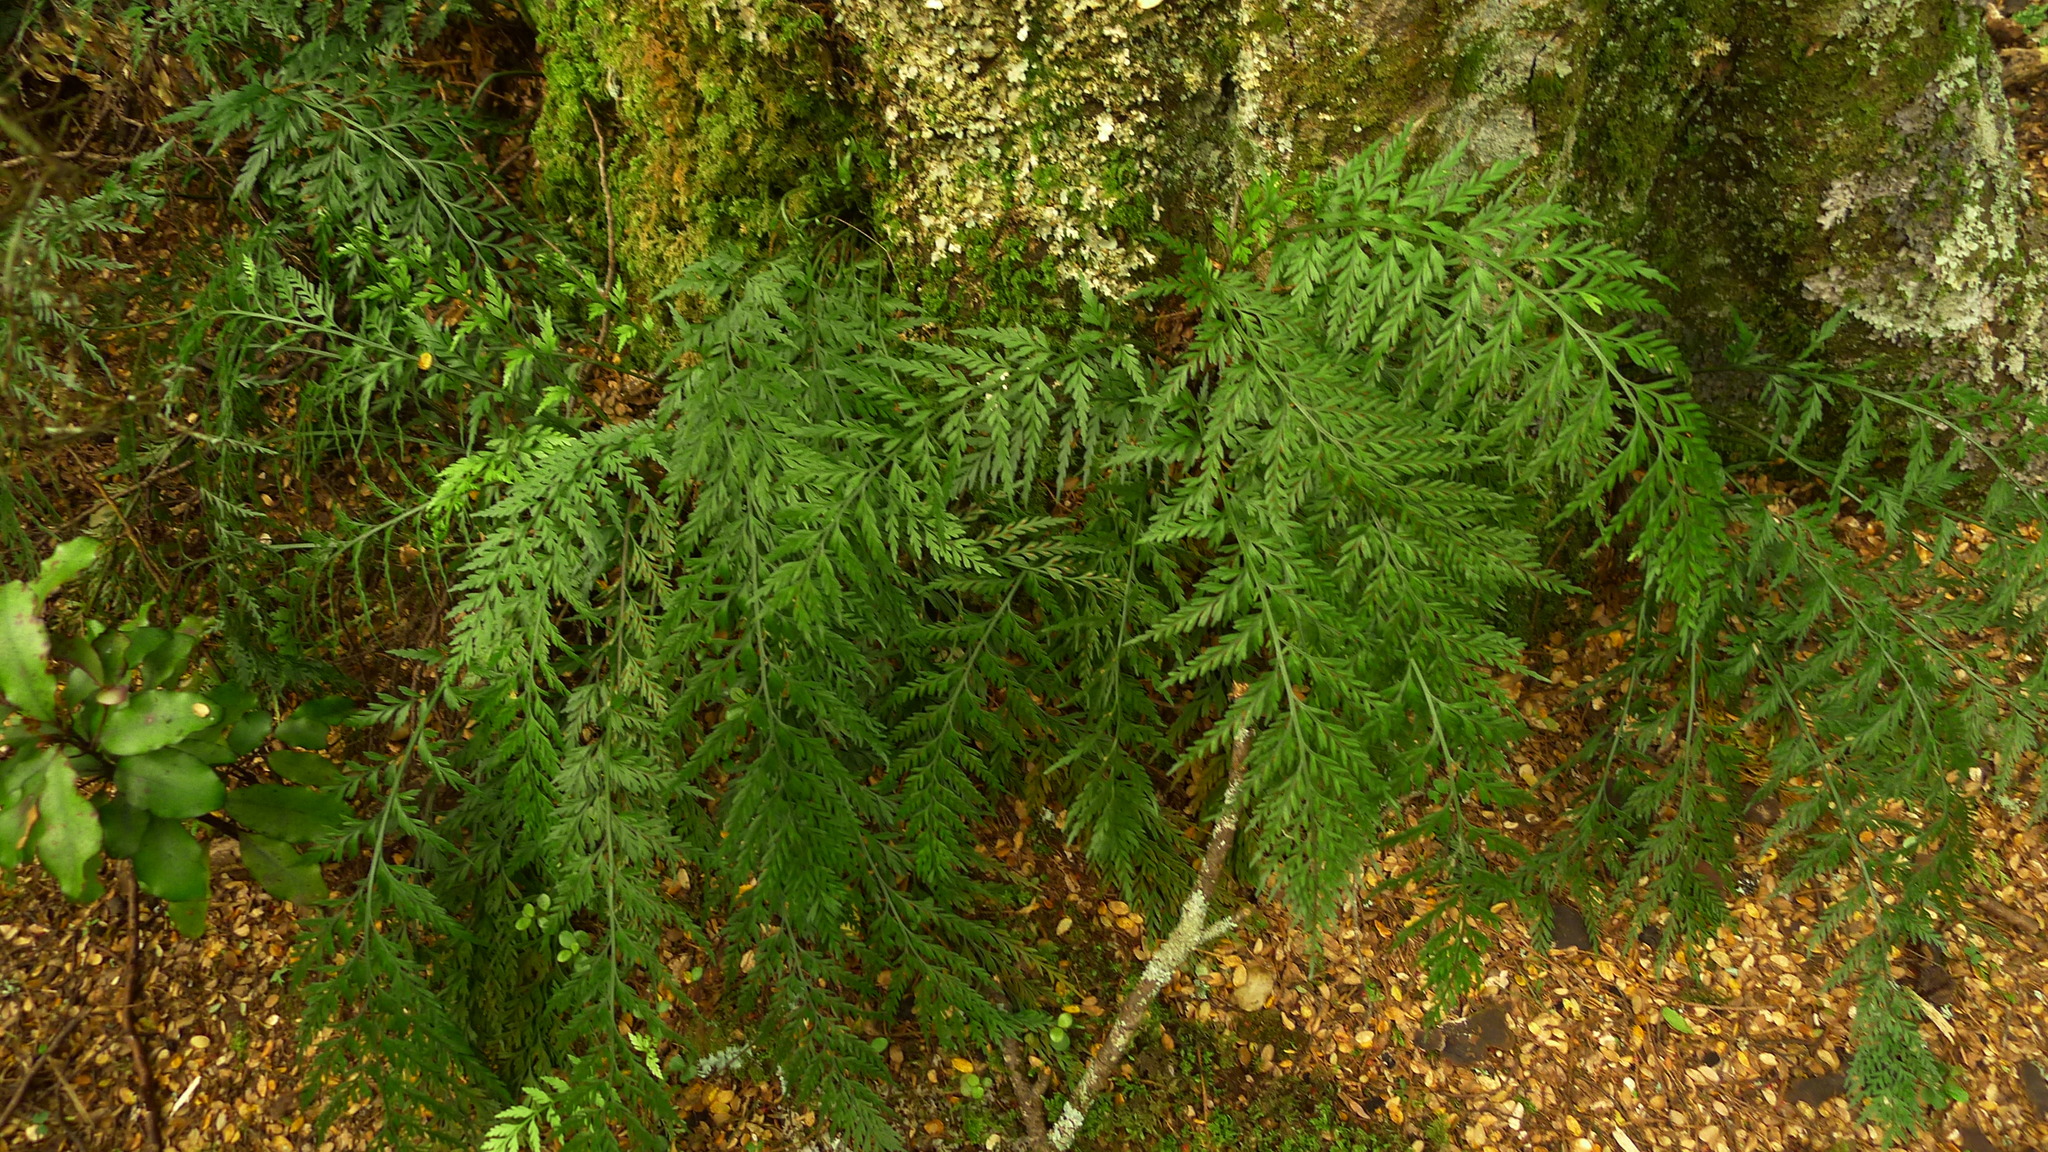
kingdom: Plantae
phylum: Tracheophyta
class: Polypodiopsida
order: Polypodiales
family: Aspleniaceae
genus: Asplenium
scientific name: Asplenium appendiculatum
